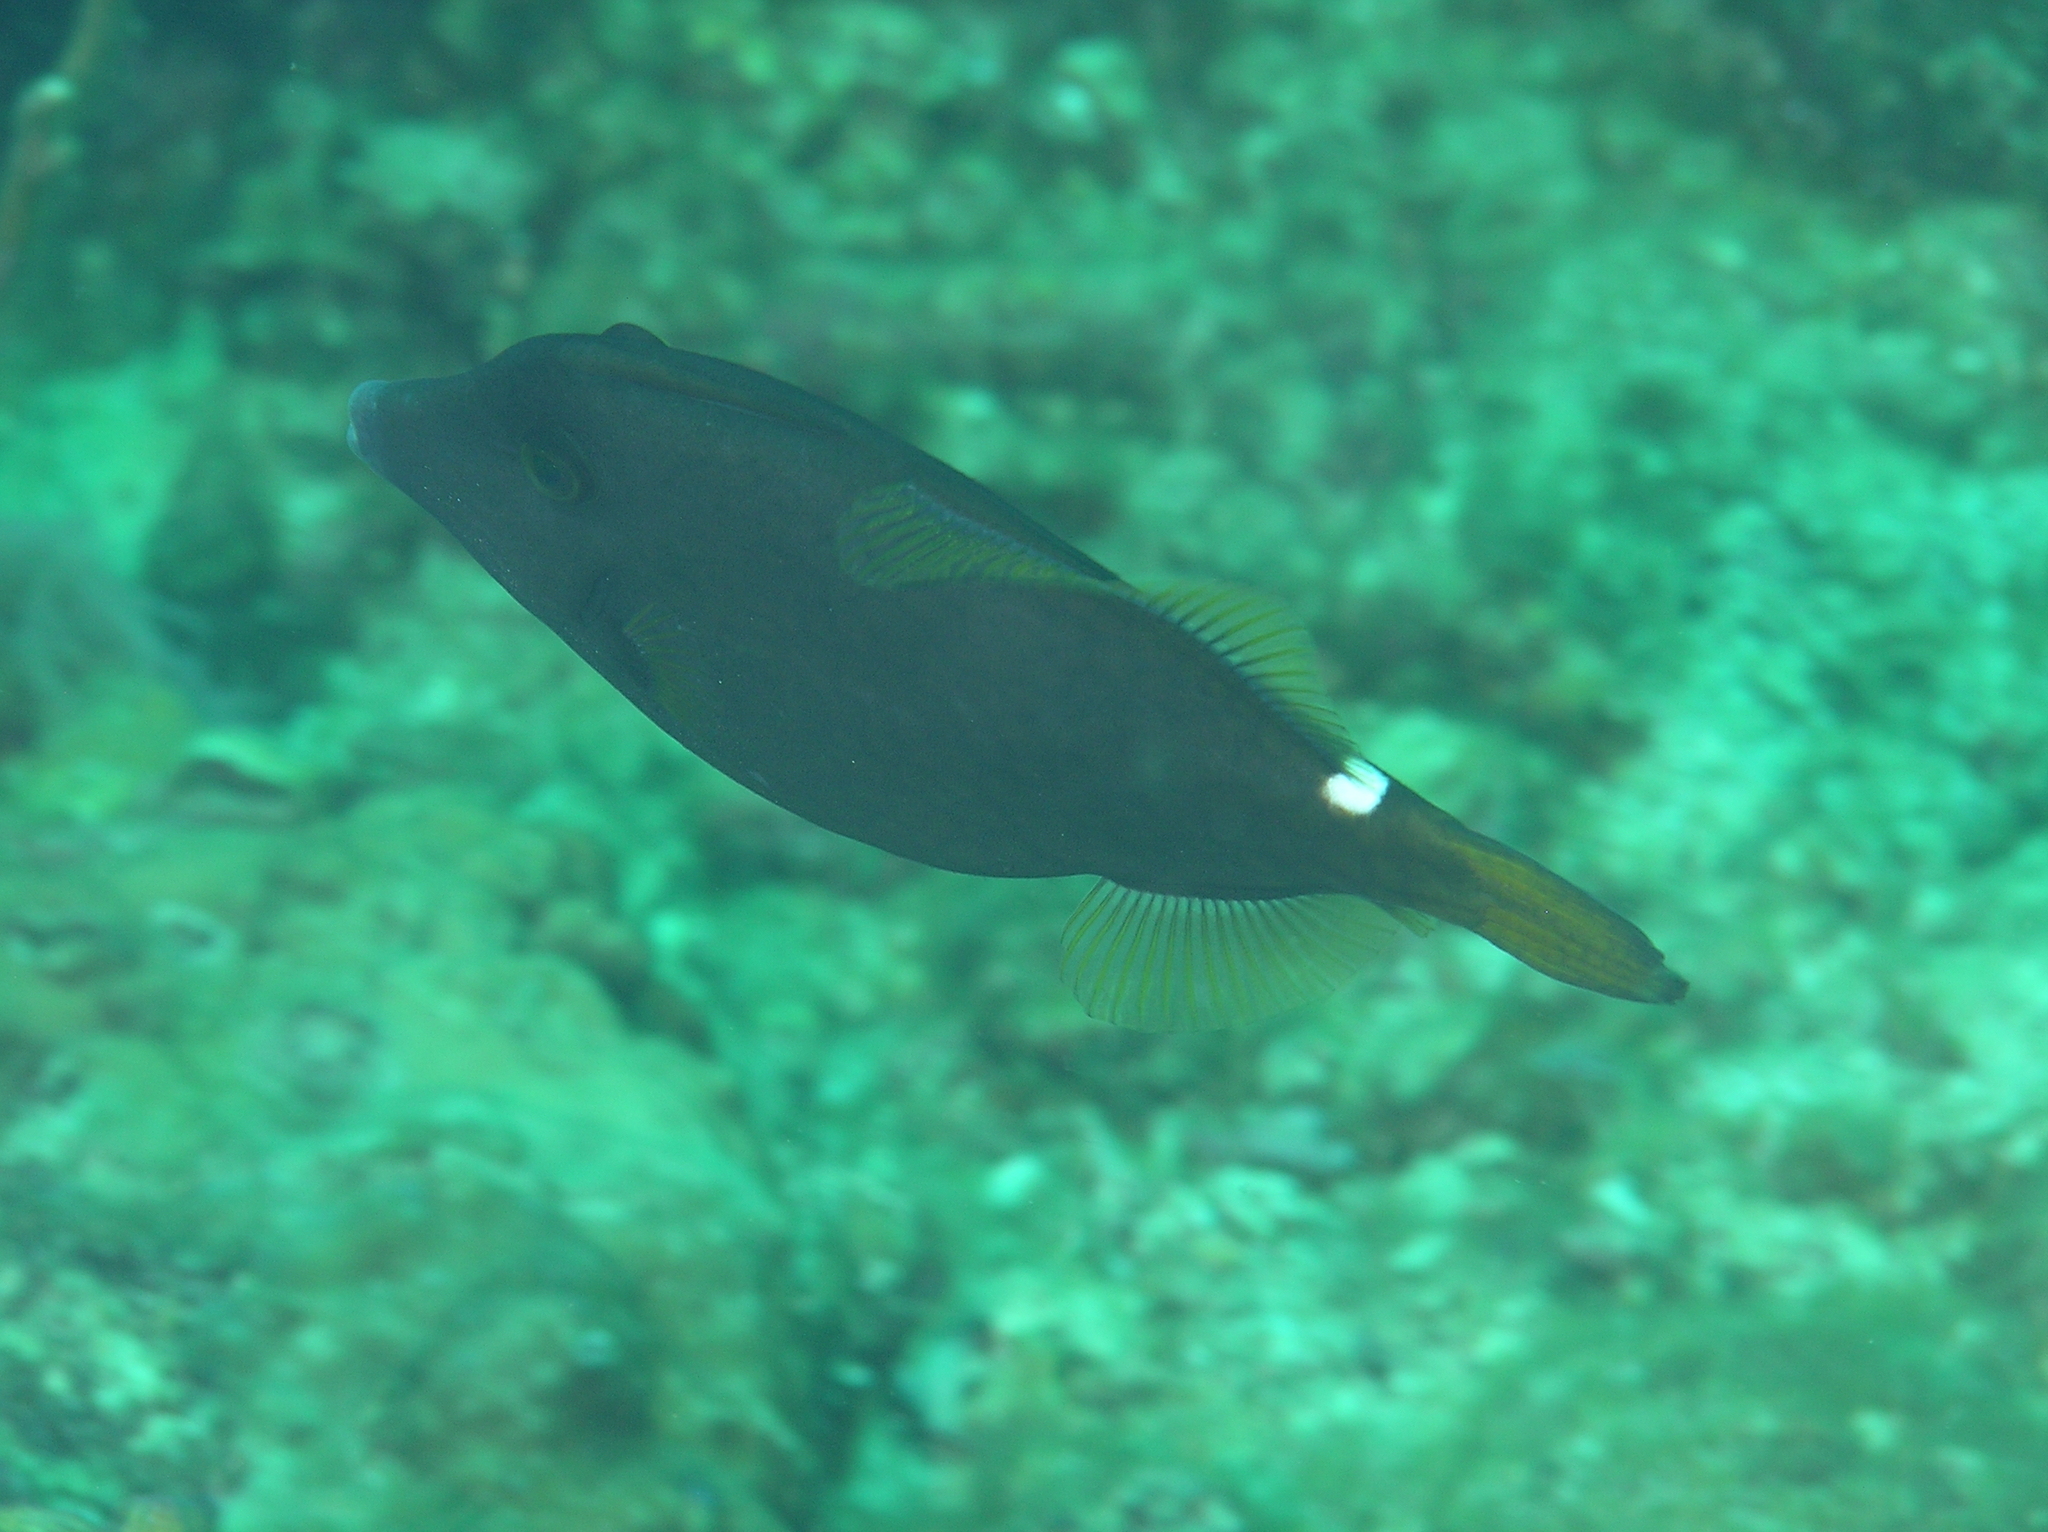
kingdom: Animalia
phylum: Chordata
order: Tetraodontiformes
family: Monacanthidae
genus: Cantherhines
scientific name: Cantherhines pardalis
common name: Honeycomb filefish
